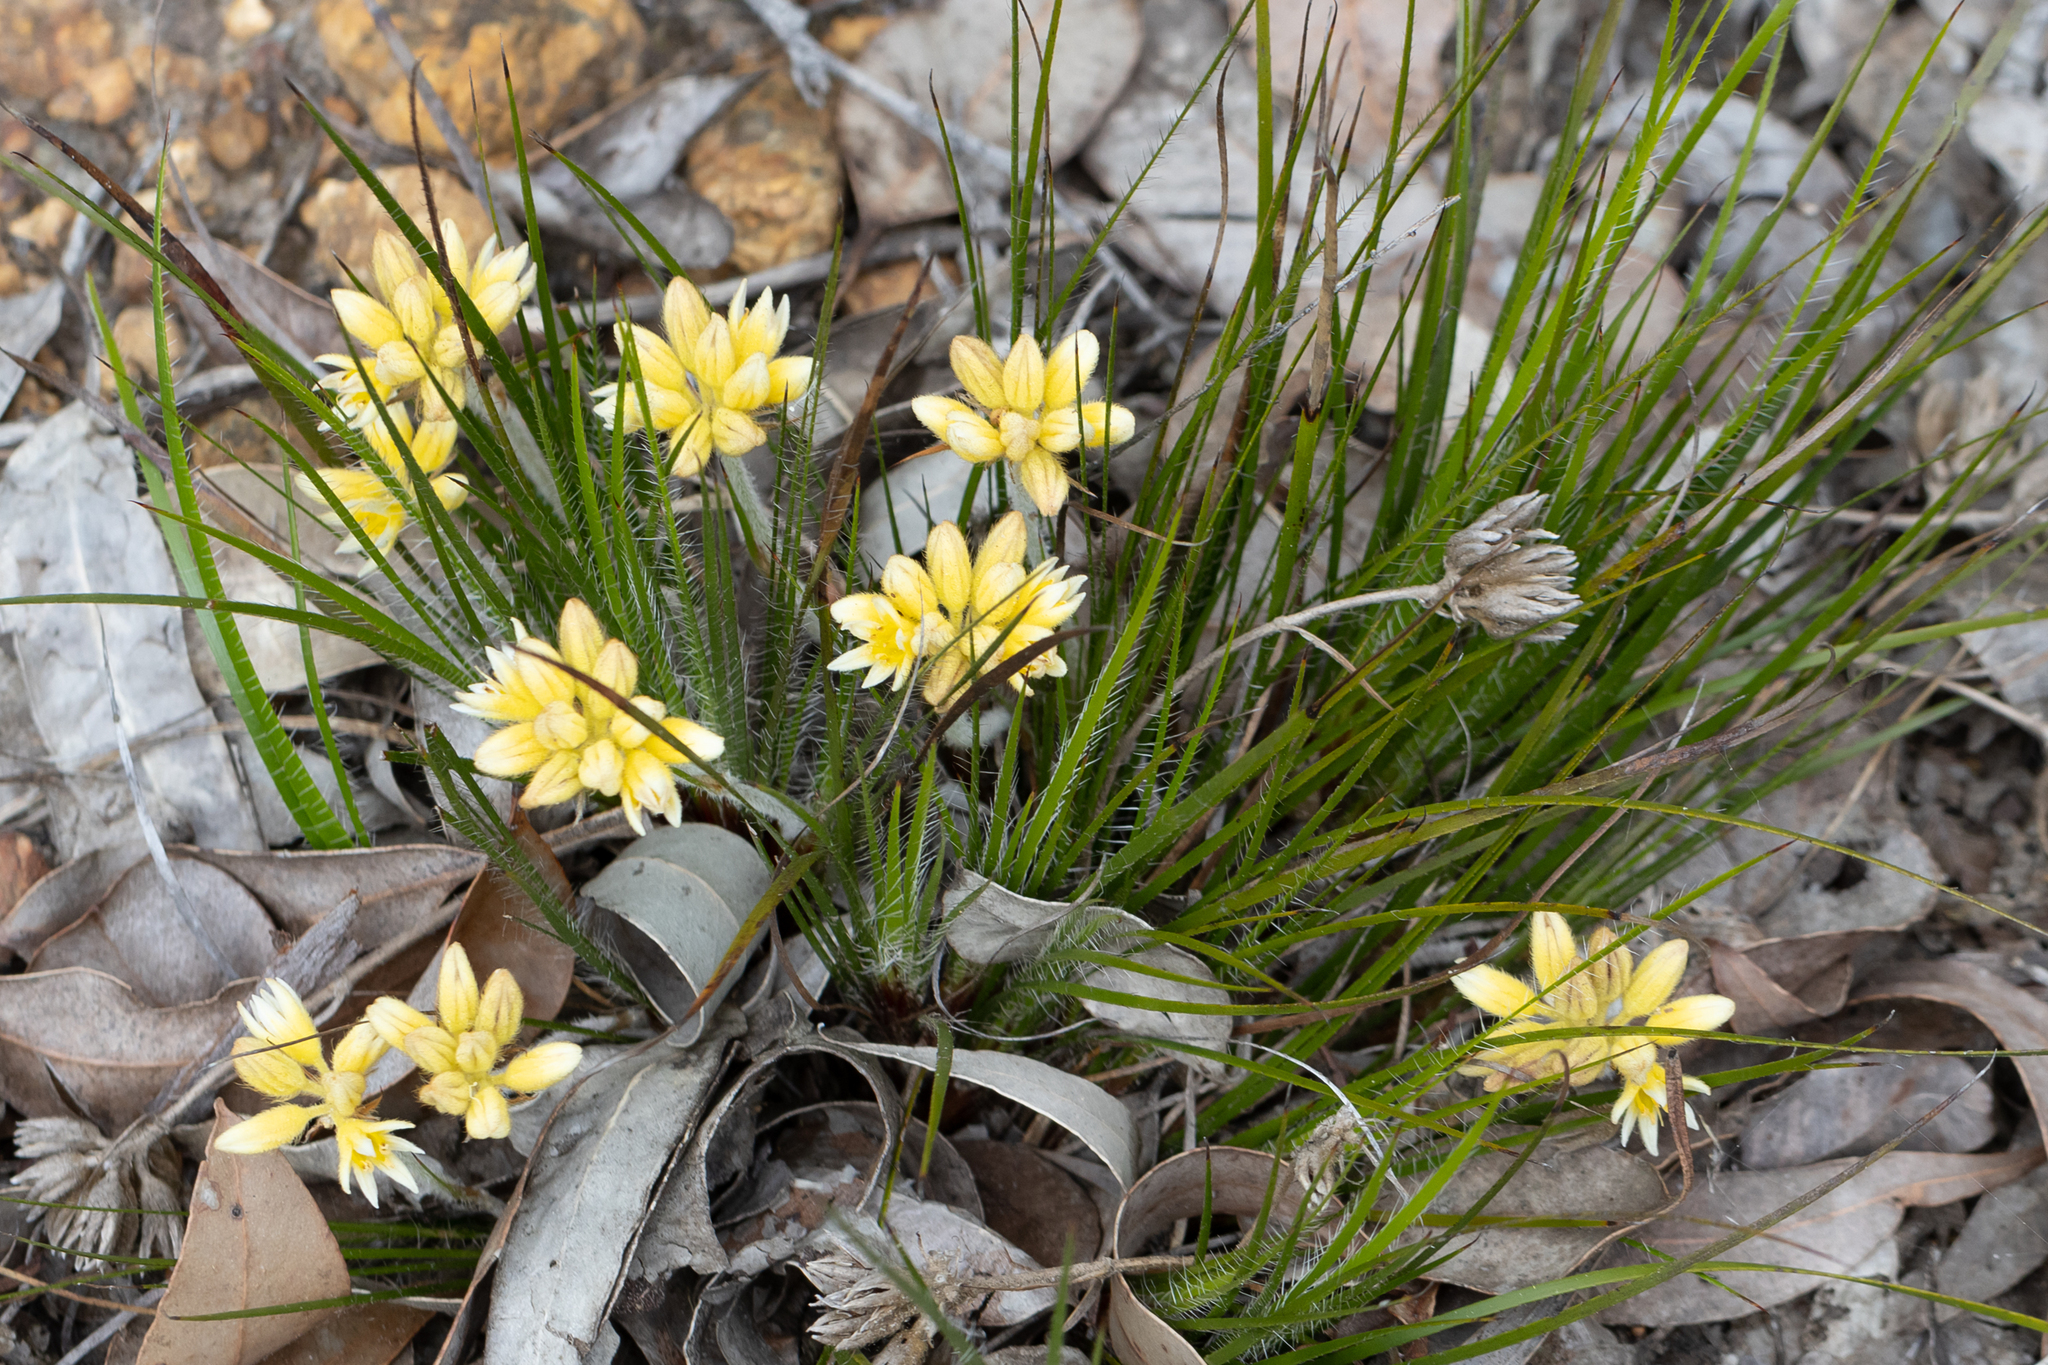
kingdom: Plantae
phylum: Tracheophyta
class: Liliopsida
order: Commelinales
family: Haemodoraceae
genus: Conostylis
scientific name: Conostylis setigera
